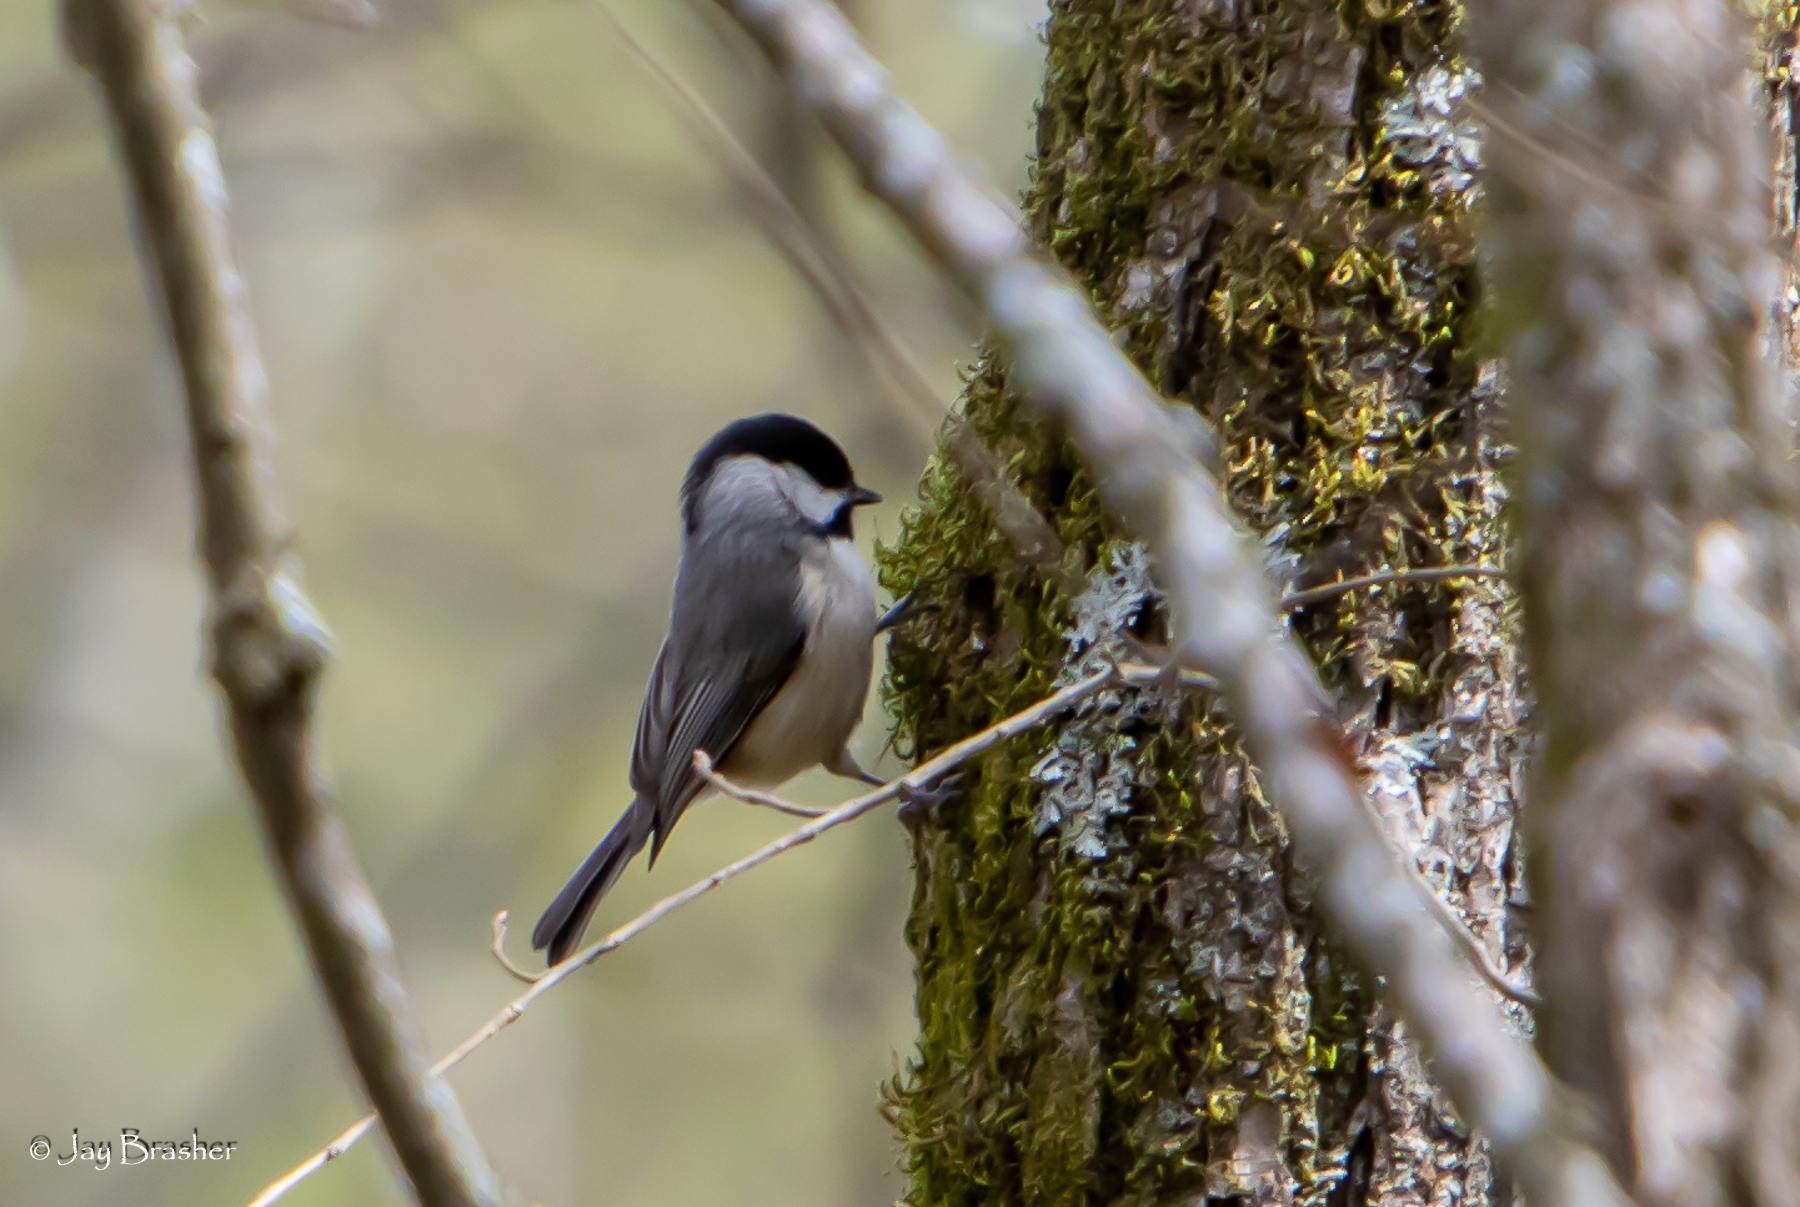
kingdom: Animalia
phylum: Chordata
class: Aves
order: Passeriformes
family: Paridae
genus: Poecile
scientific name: Poecile carolinensis
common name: Carolina chickadee
